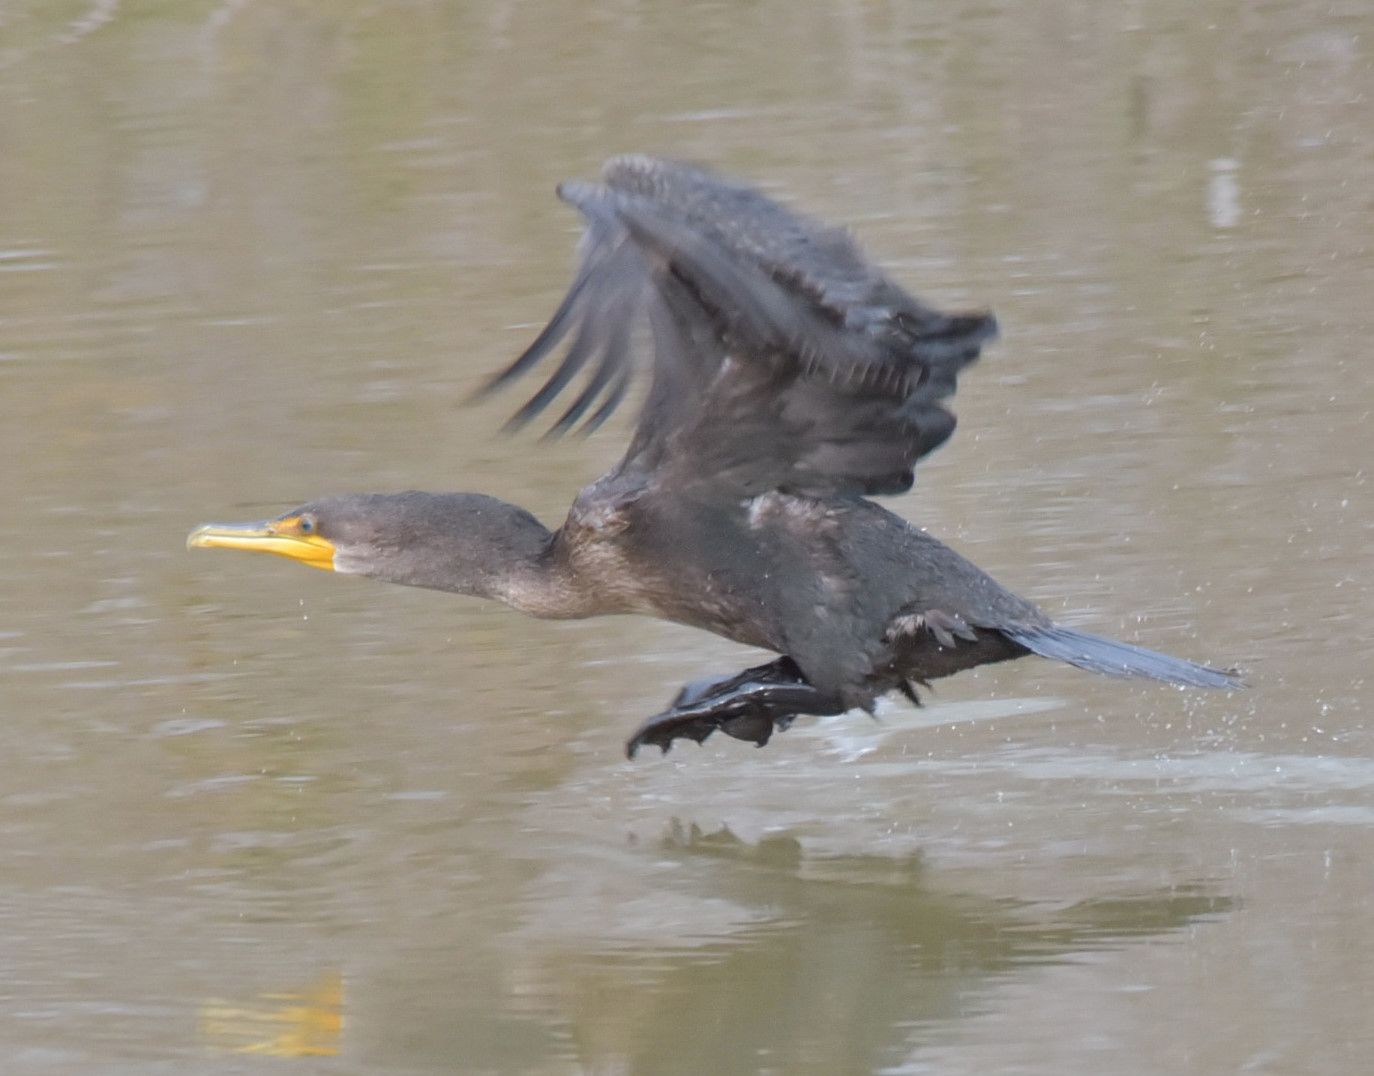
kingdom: Animalia
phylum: Chordata
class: Aves
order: Suliformes
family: Phalacrocoracidae
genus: Phalacrocorax
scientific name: Phalacrocorax auritus
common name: Double-crested cormorant
